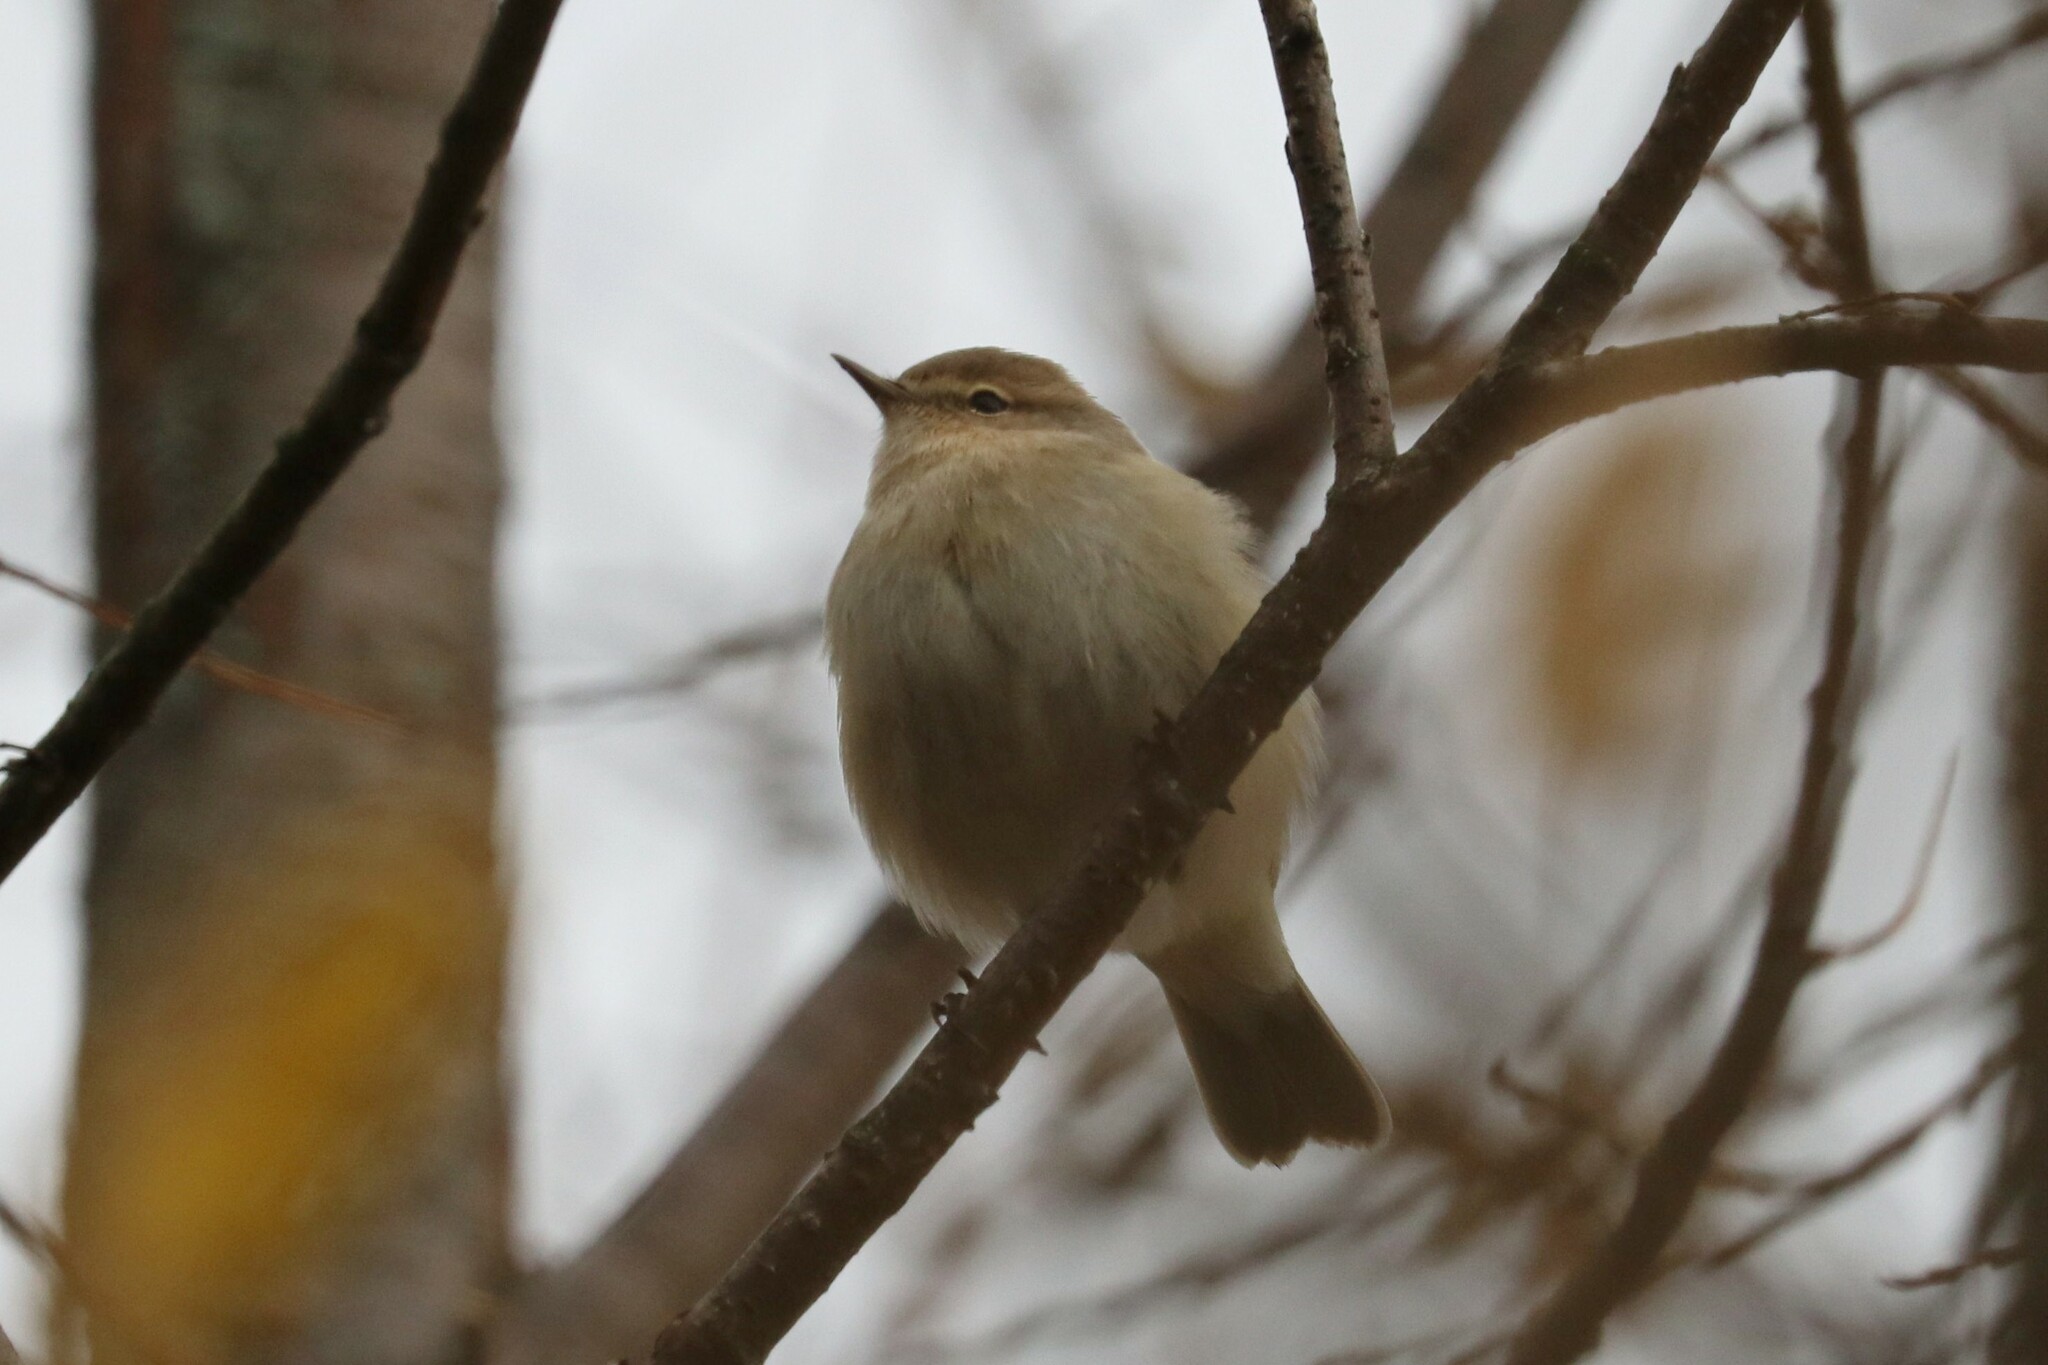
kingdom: Animalia
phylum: Chordata
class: Aves
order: Passeriformes
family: Phylloscopidae
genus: Phylloscopus
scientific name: Phylloscopus collybita
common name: Common chiffchaff
